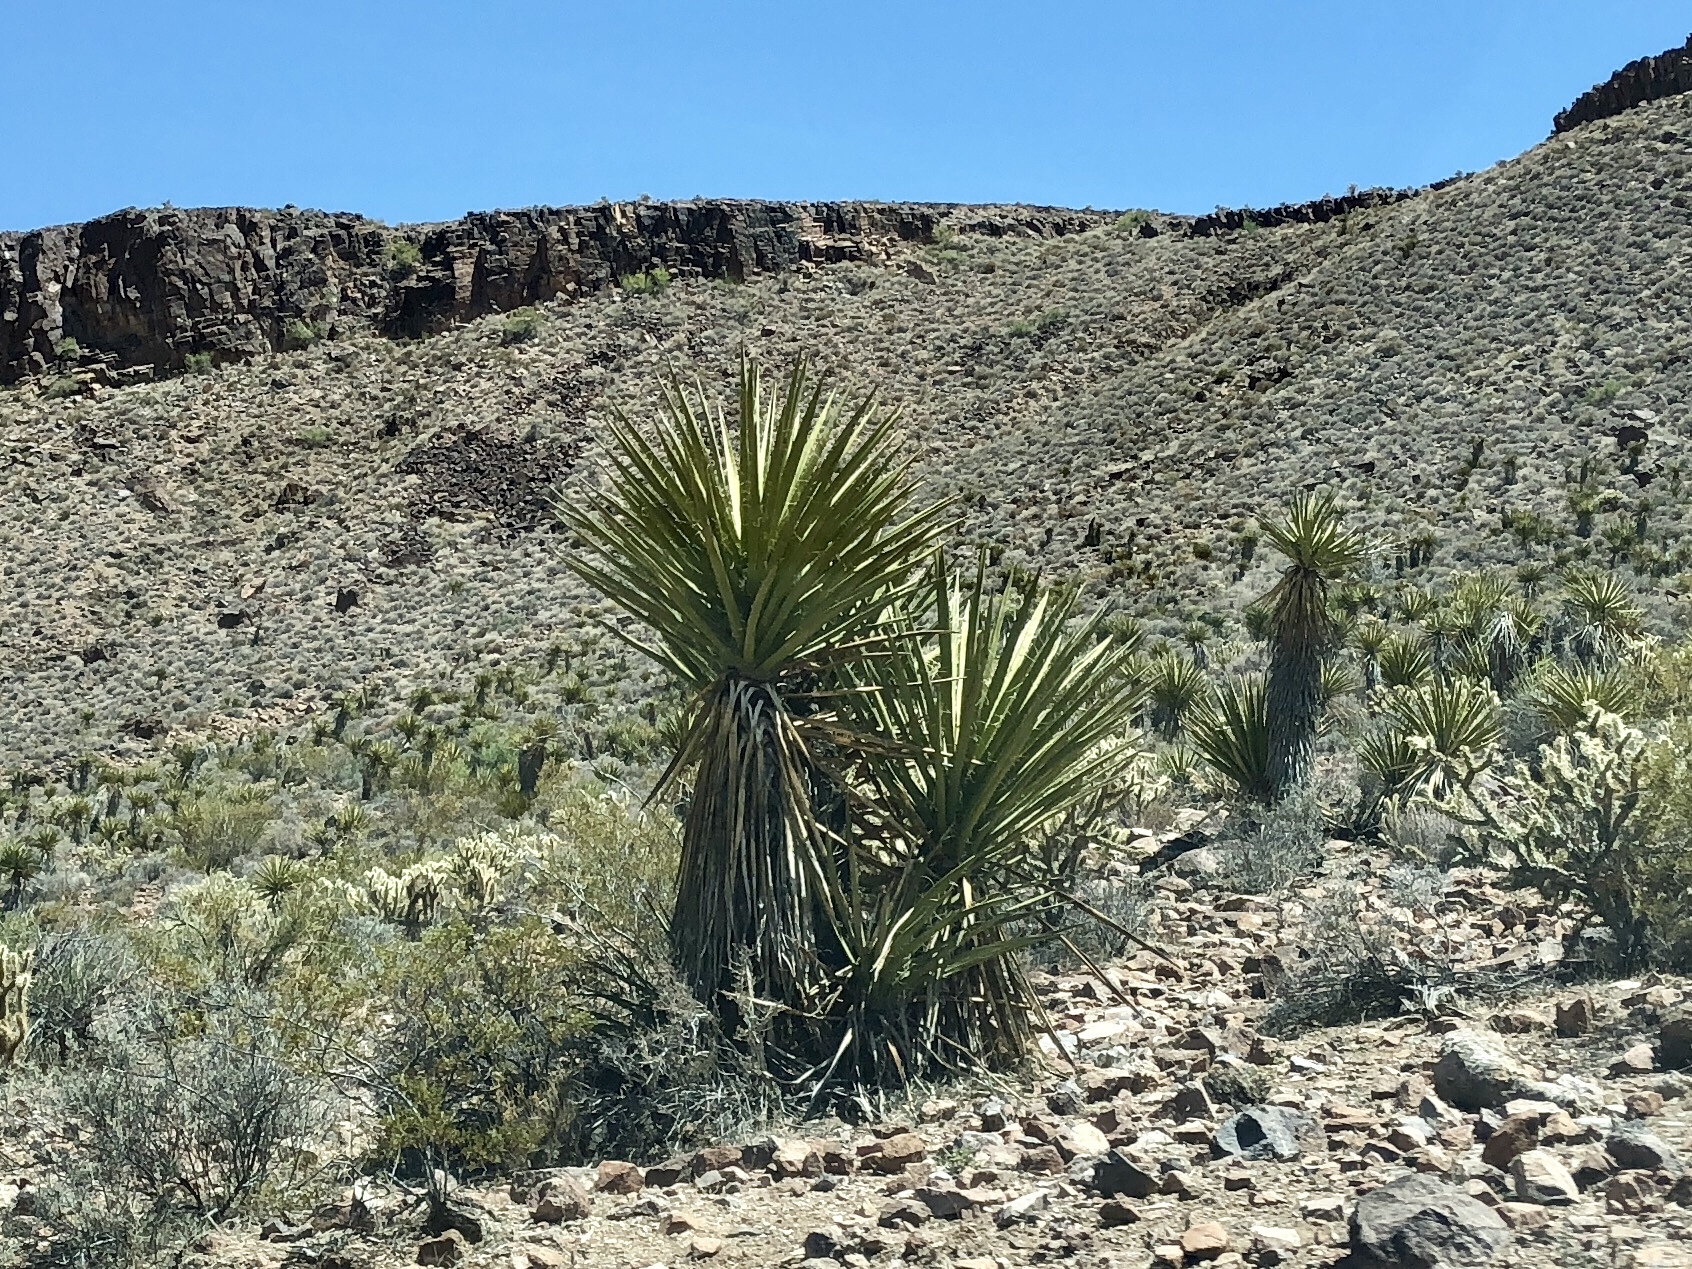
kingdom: Plantae
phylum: Tracheophyta
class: Liliopsida
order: Asparagales
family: Asparagaceae
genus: Yucca
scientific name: Yucca schidigera
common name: Mojave yucca
